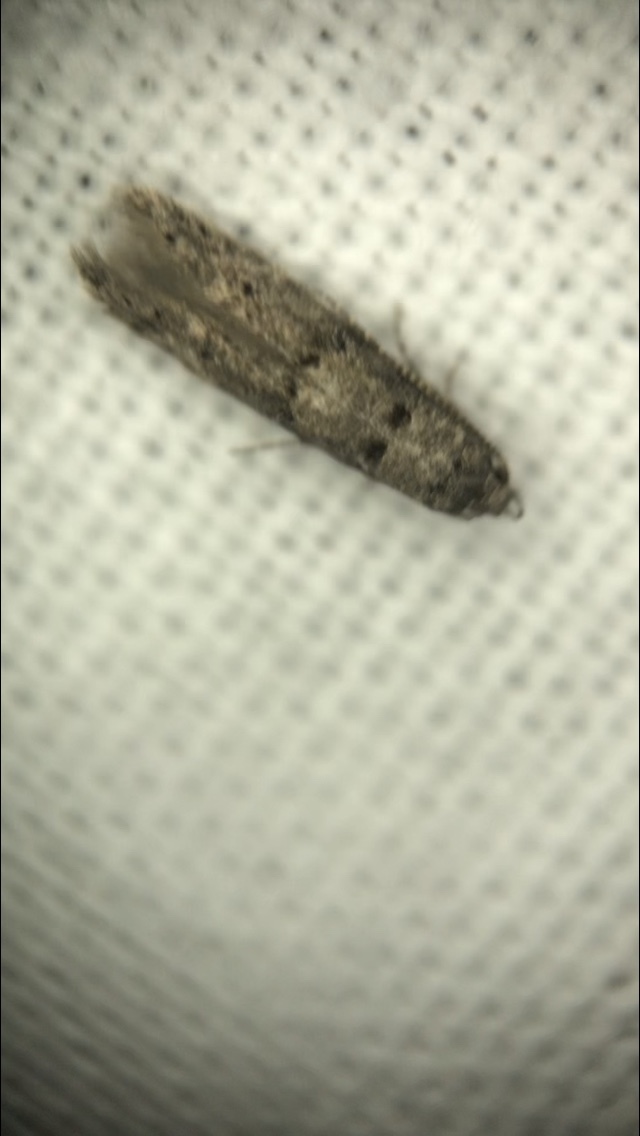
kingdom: Animalia
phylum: Arthropoda
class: Insecta
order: Lepidoptera
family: Cosmopterigidae
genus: Sorhagenia
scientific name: Sorhagenia nimbosus
